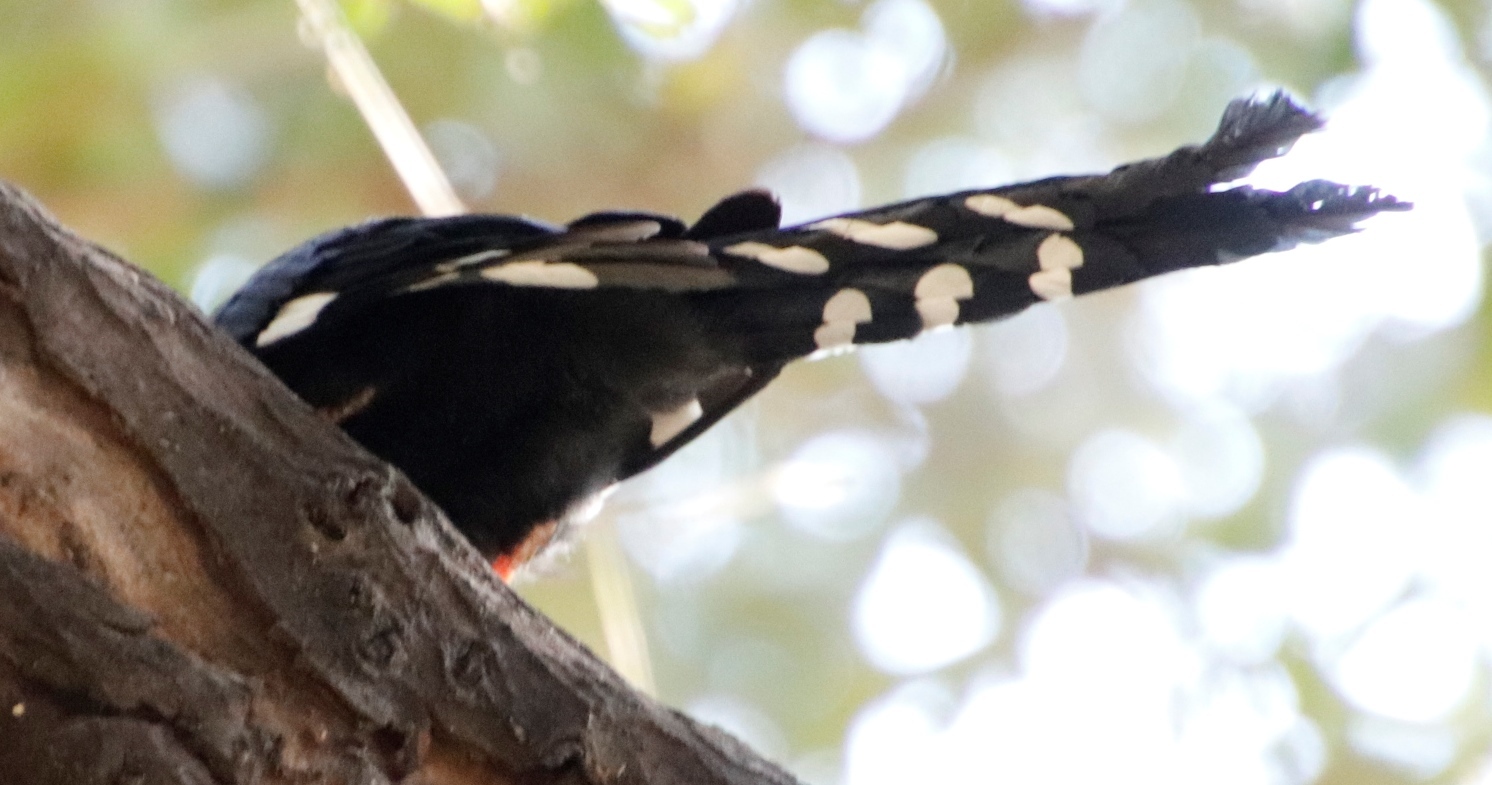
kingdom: Animalia
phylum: Chordata
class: Aves
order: Bucerotiformes
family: Phoeniculidae
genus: Phoeniculus
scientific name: Phoeniculus purpureus
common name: Green woodhoopoe
